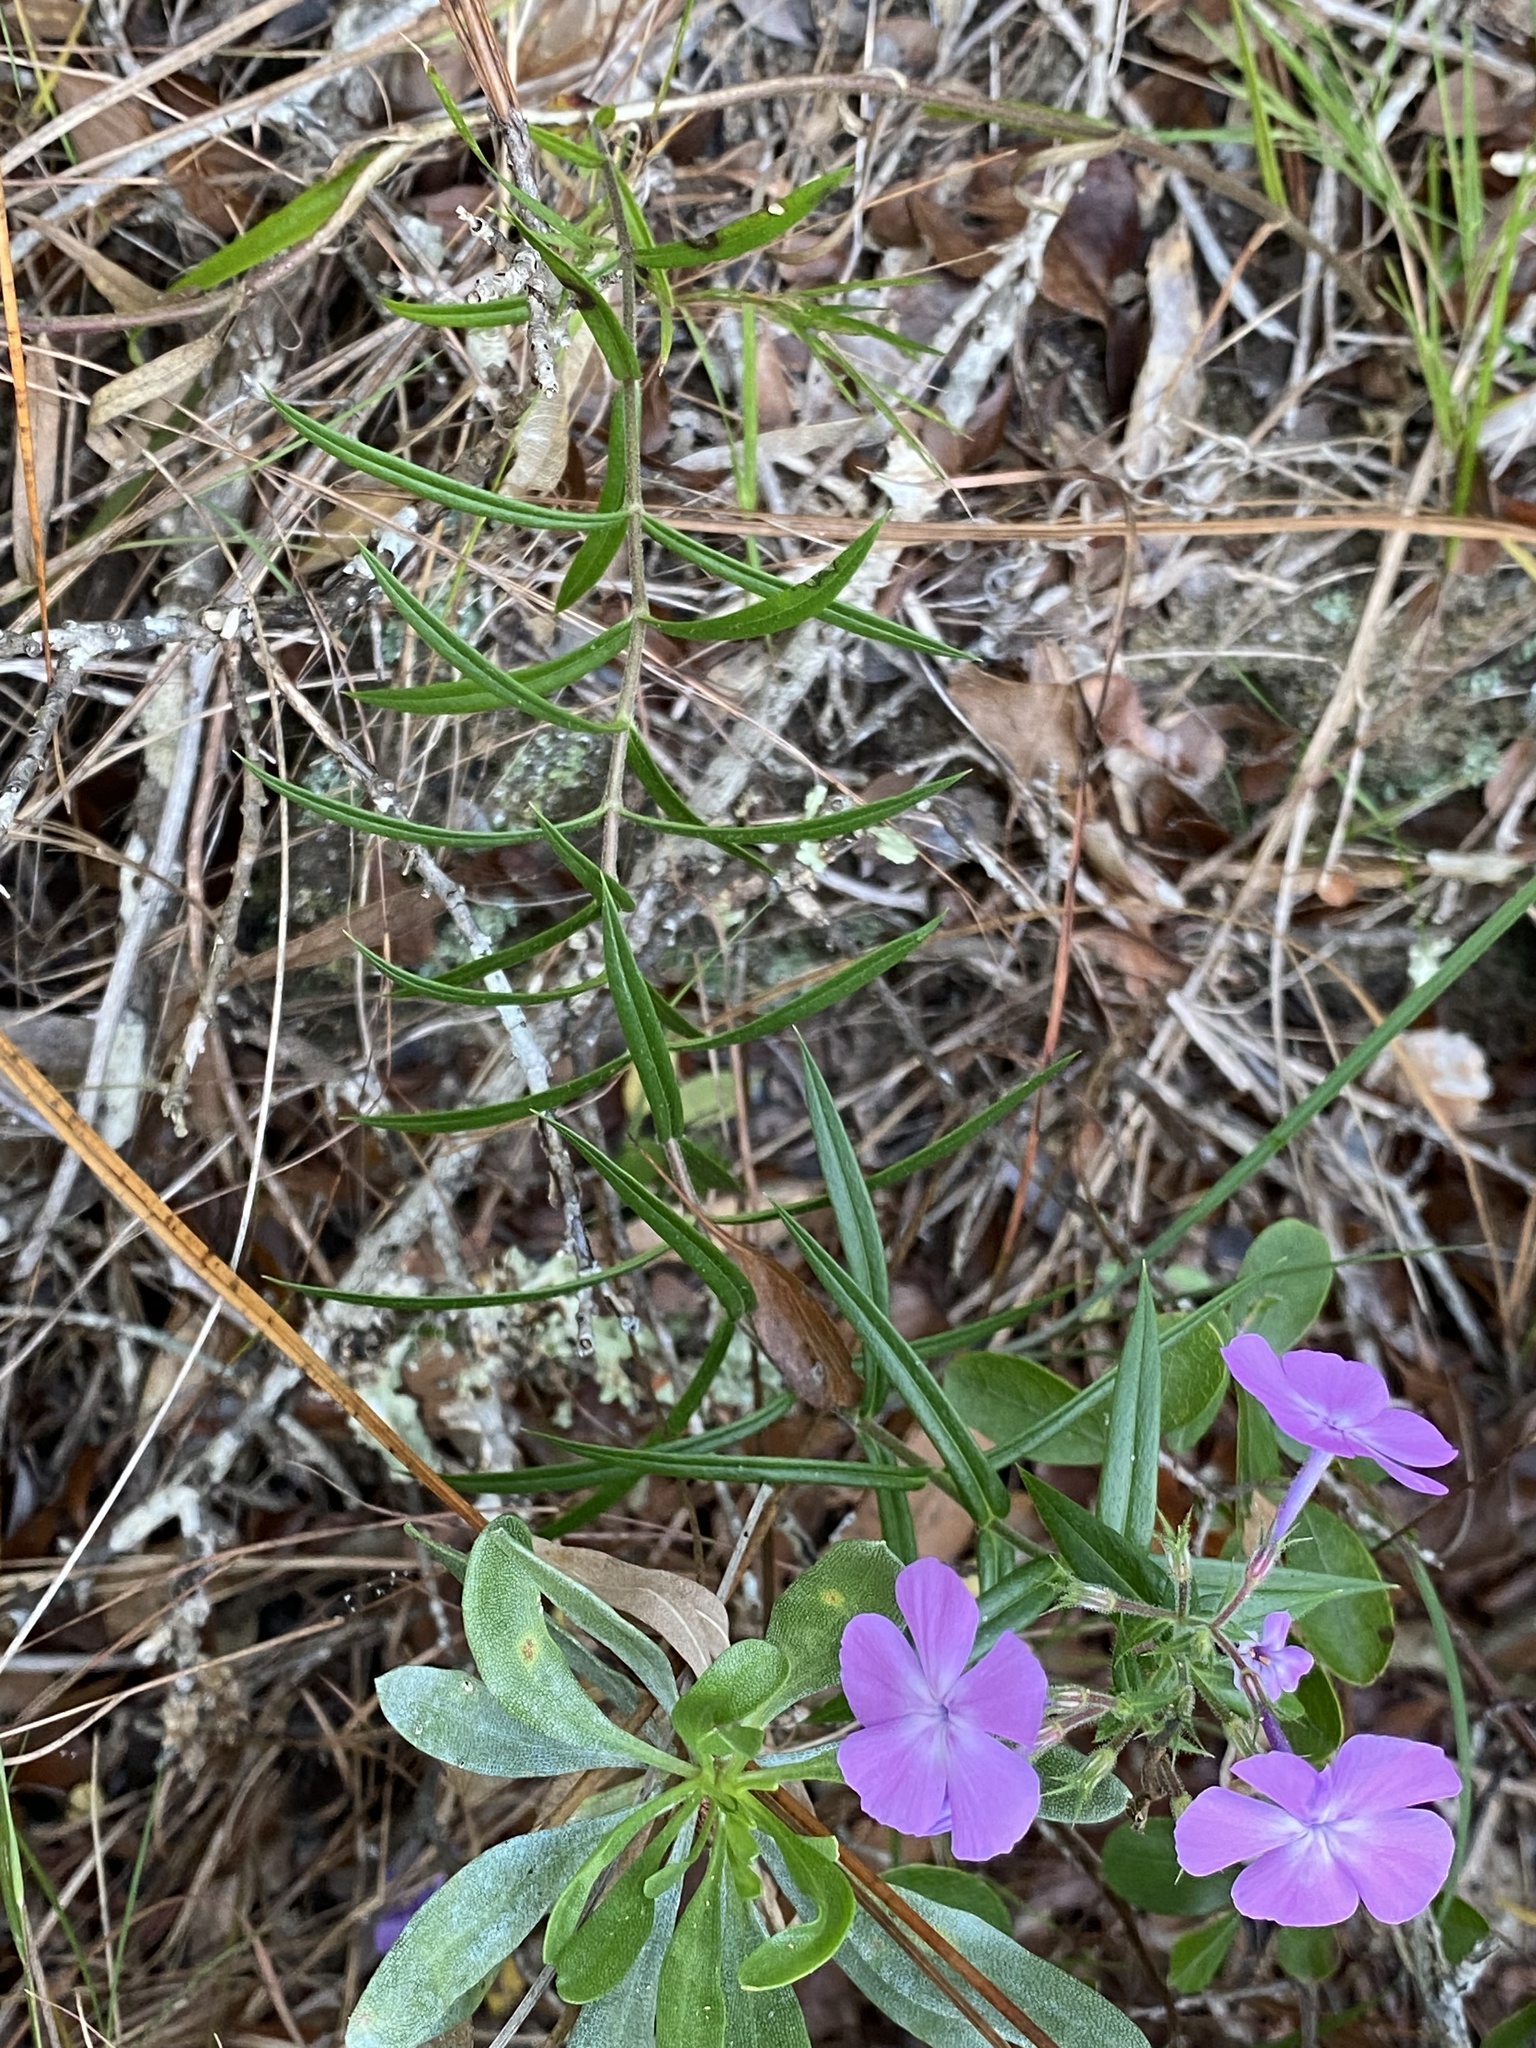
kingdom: Plantae
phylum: Tracheophyta
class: Magnoliopsida
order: Ericales
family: Polemoniaceae
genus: Phlox
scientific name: Phlox pilosa
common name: Prairie phlox
